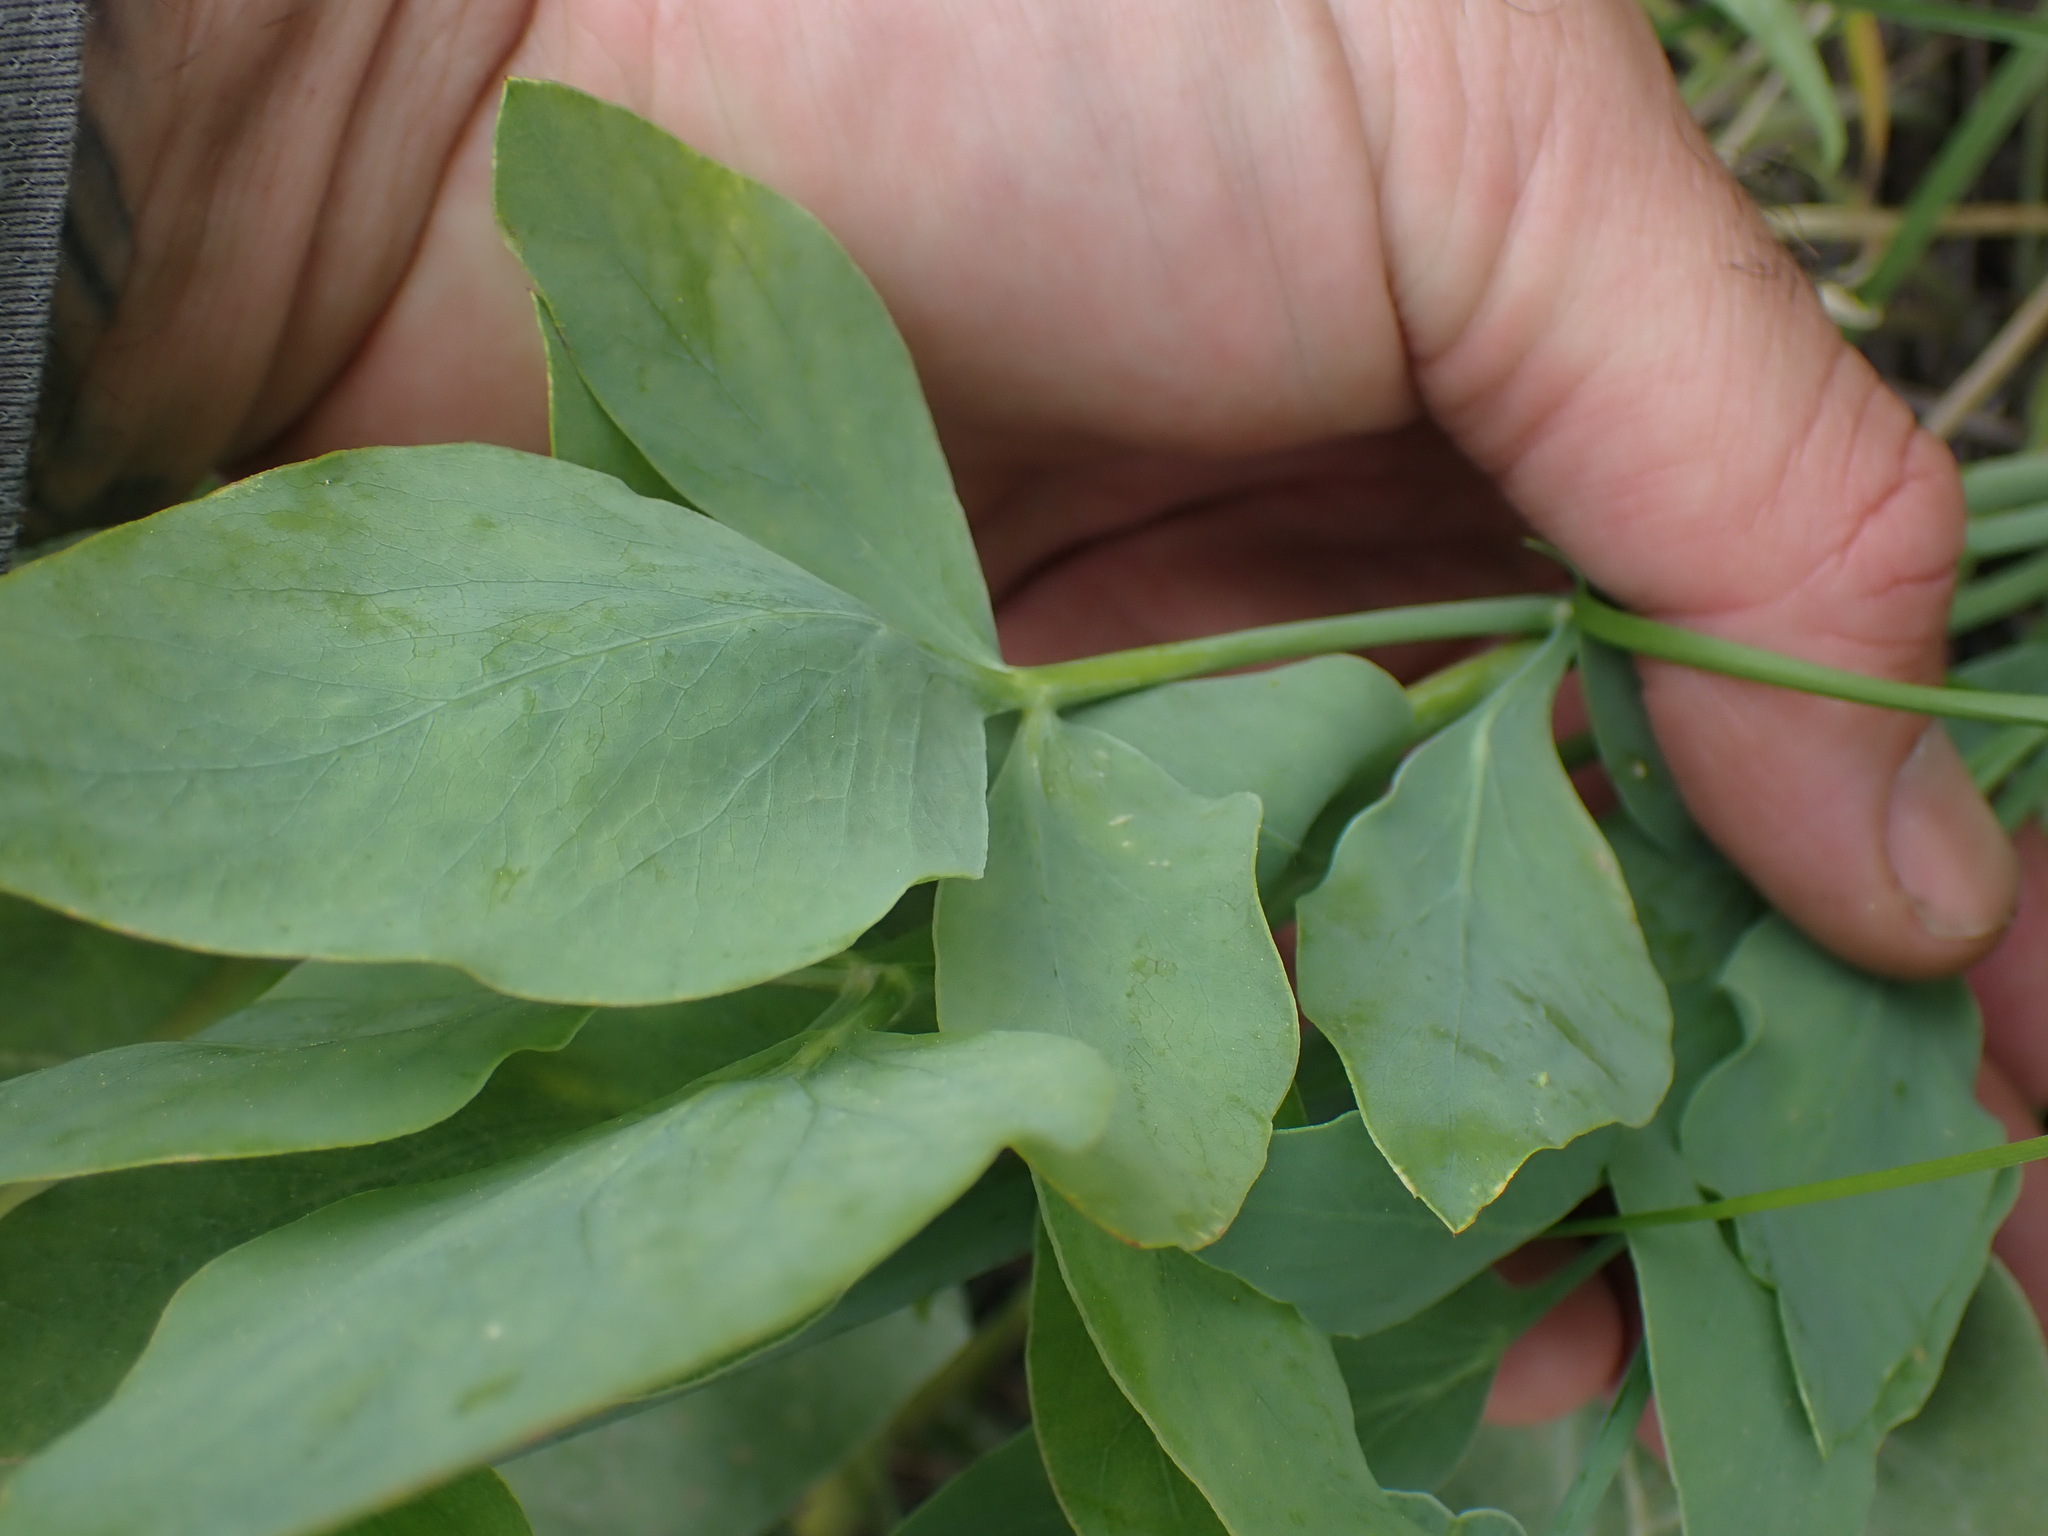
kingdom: Plantae
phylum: Tracheophyta
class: Magnoliopsida
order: Apiales
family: Apiaceae
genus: Lomatium
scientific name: Lomatium nudicaule
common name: Pestle lomatium
